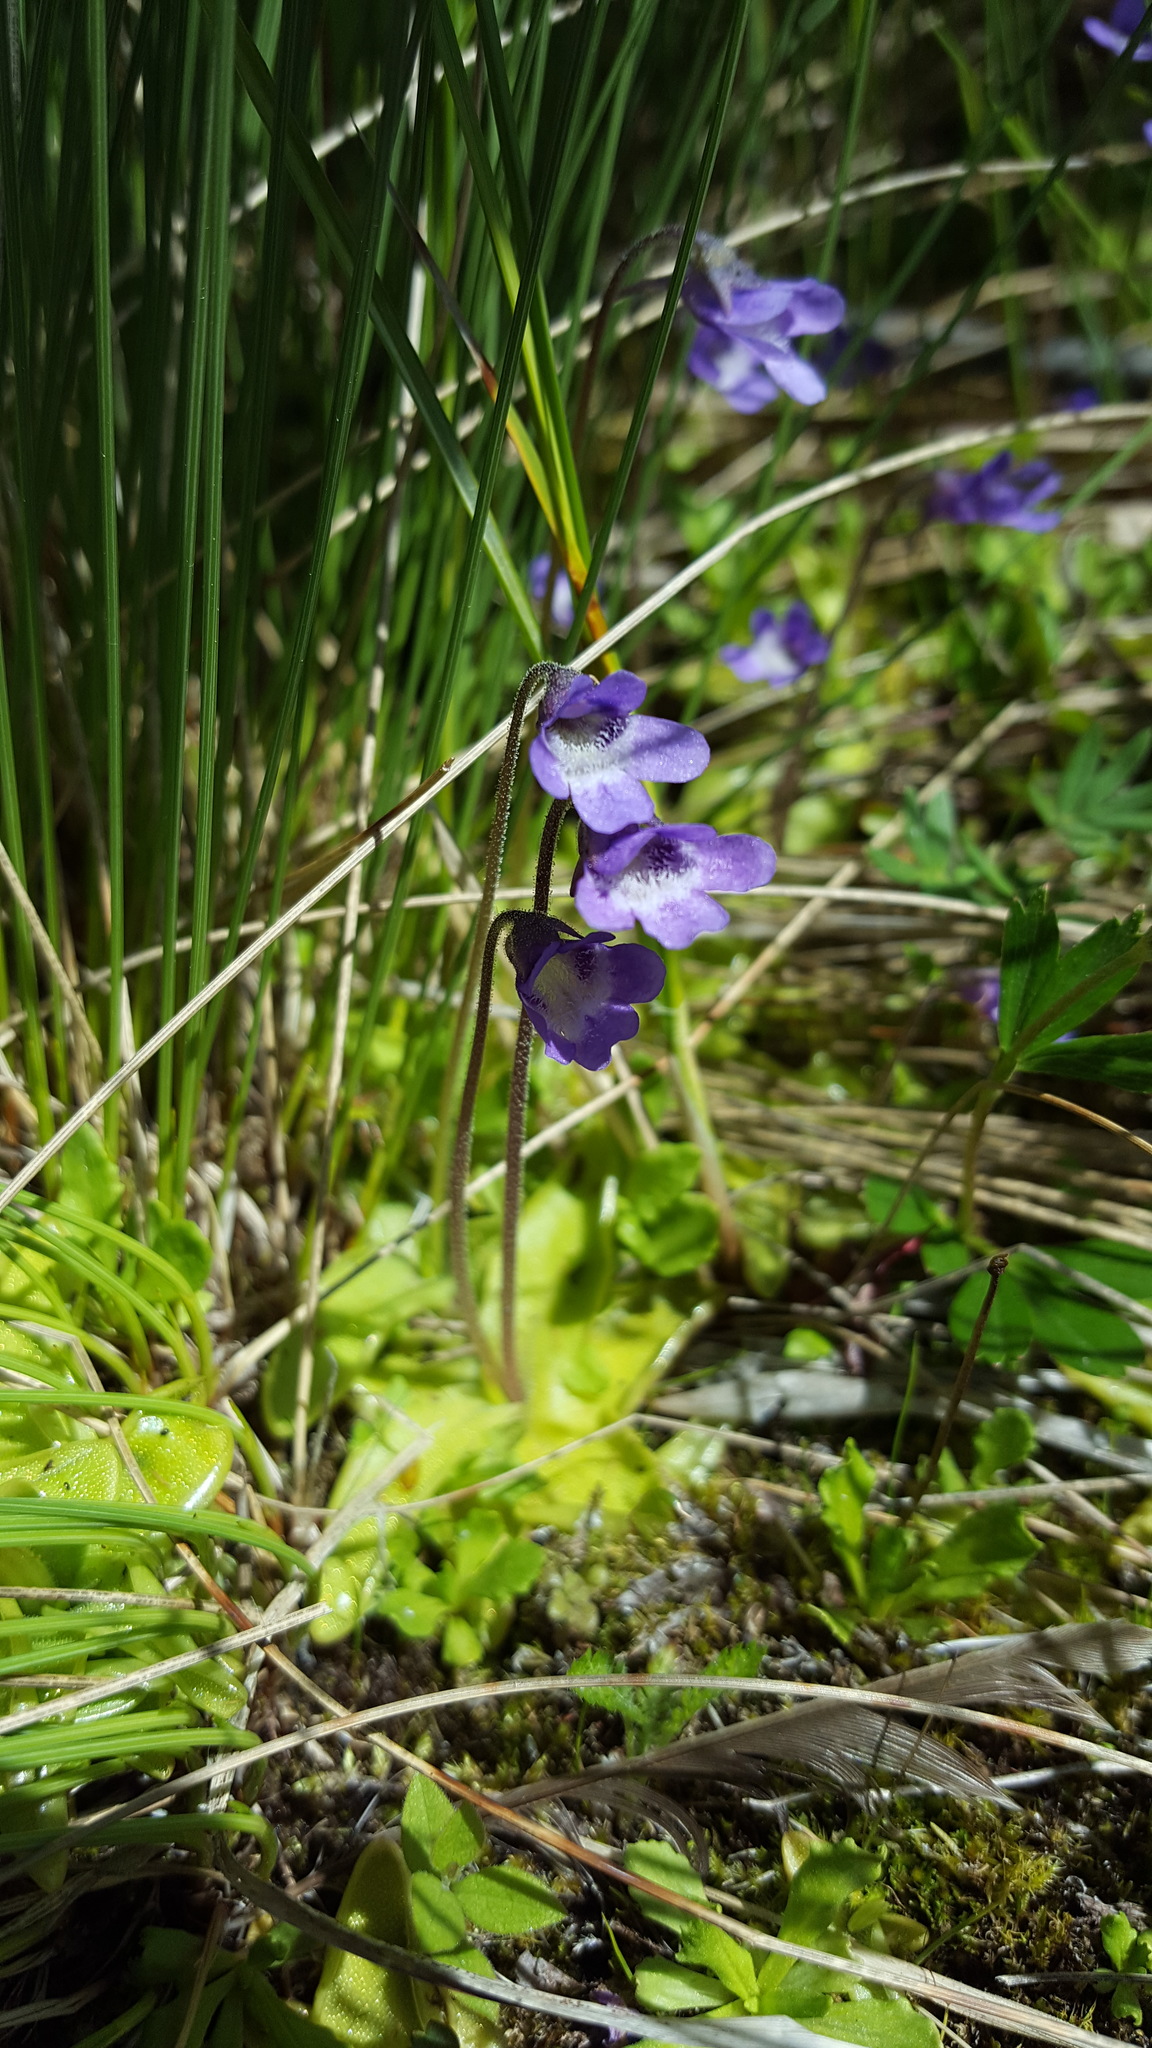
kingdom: Plantae
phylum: Tracheophyta
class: Magnoliopsida
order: Lamiales
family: Lentibulariaceae
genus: Pinguicula
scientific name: Pinguicula vulgaris
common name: Common butterwort
